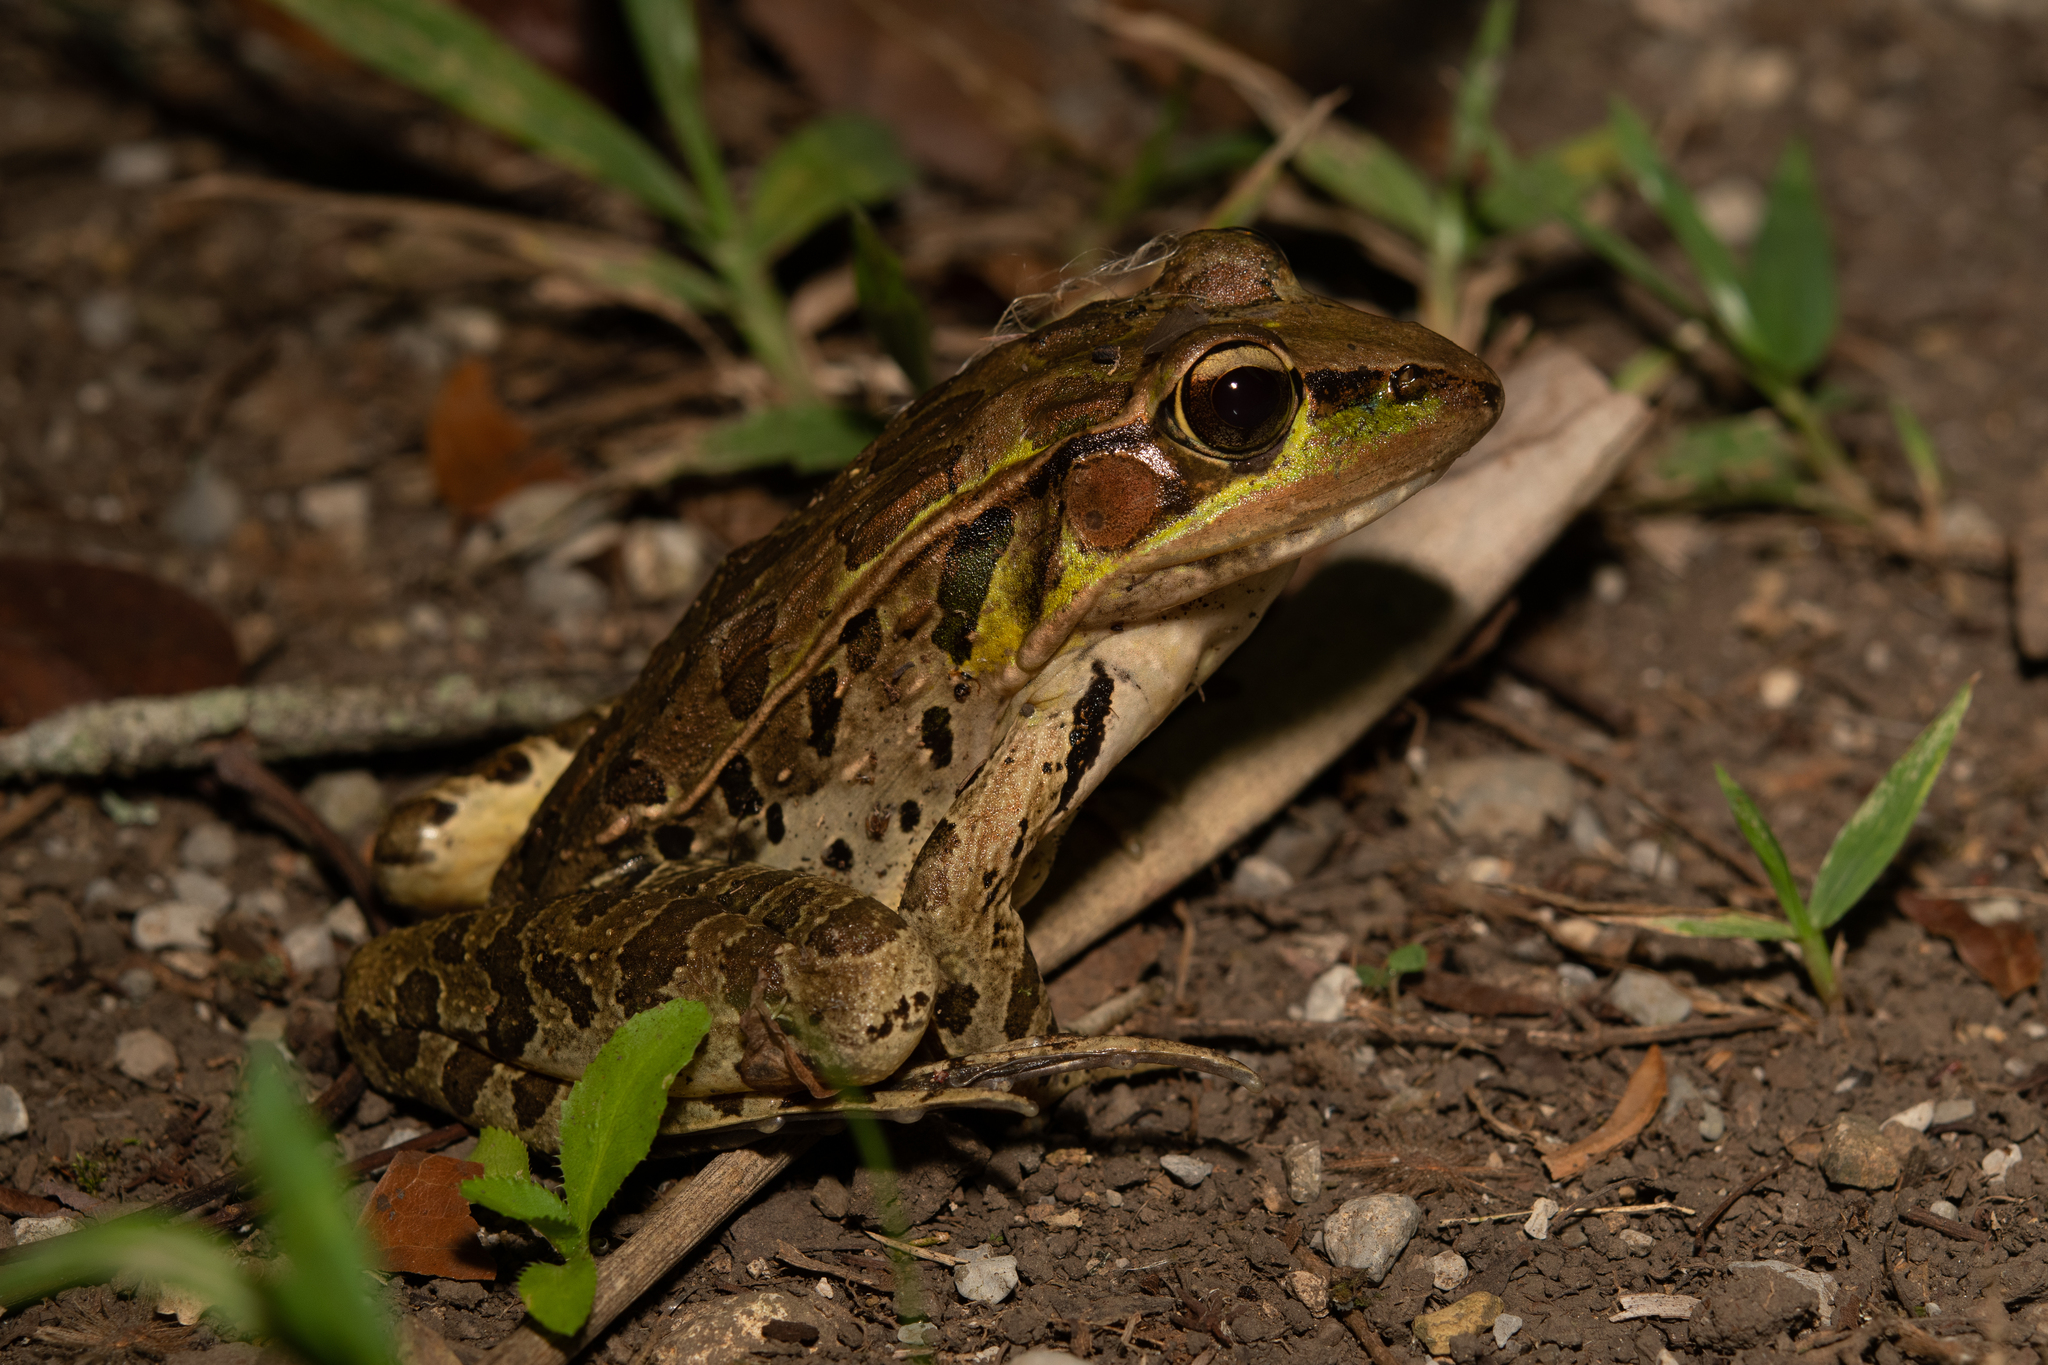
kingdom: Animalia
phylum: Chordata
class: Amphibia
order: Anura
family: Ranidae
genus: Lithobates
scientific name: Lithobates brownorum
